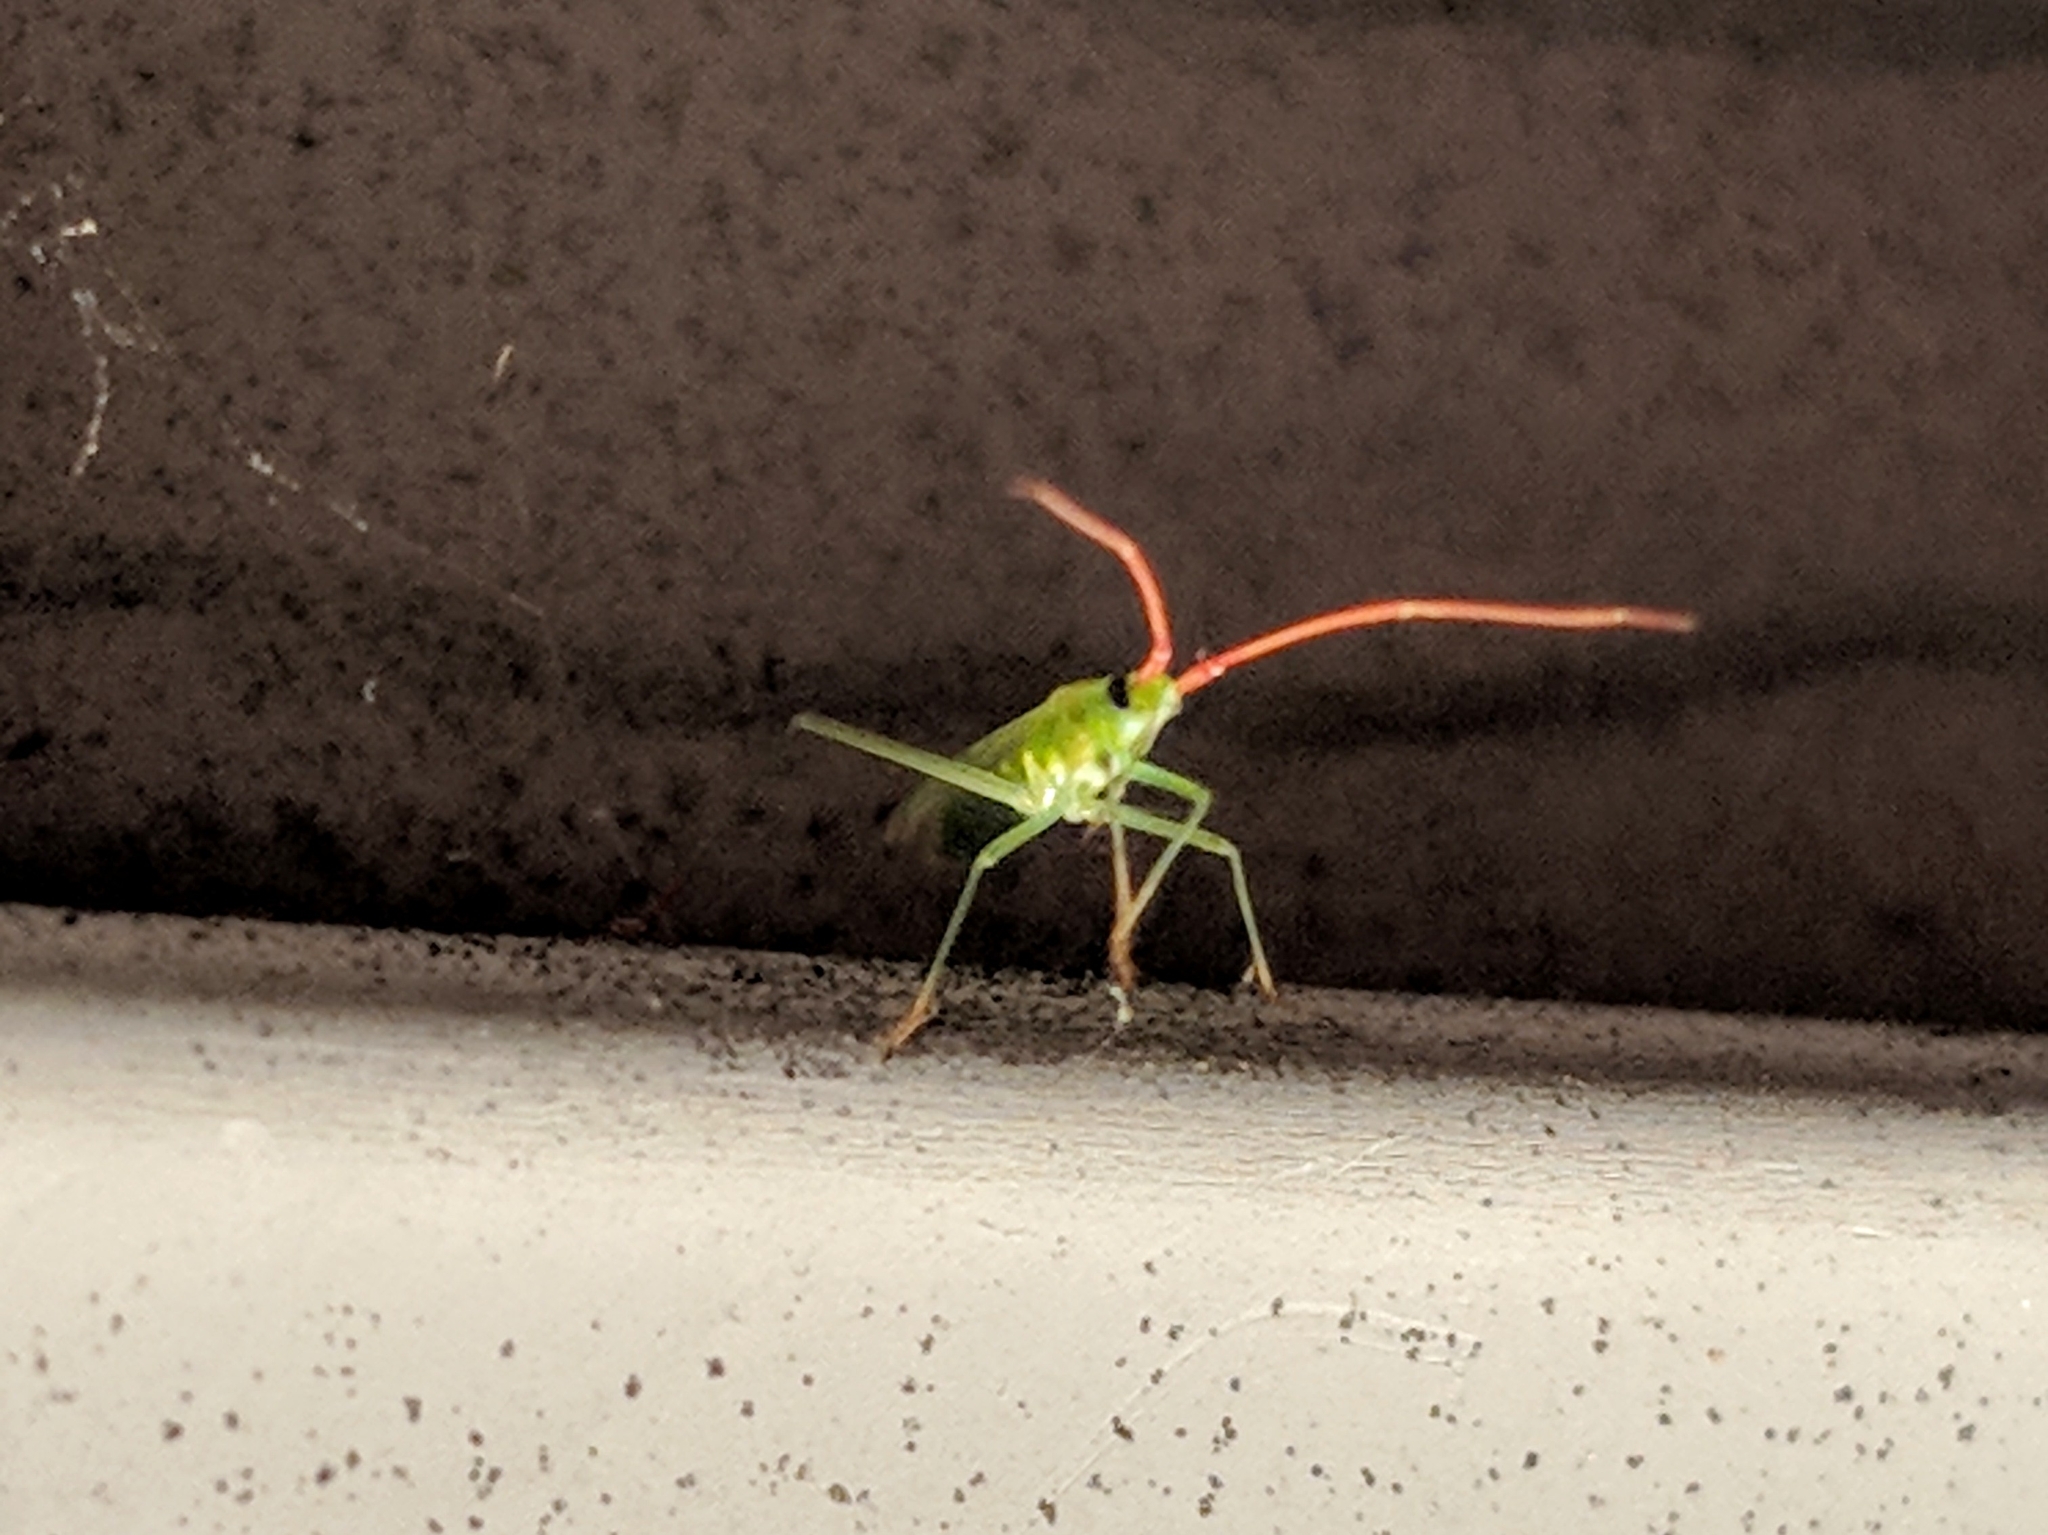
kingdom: Animalia
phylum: Arthropoda
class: Insecta
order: Hemiptera
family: Miridae
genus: Trigonotylus
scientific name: Trigonotylus caelestialium
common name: Rice leaf bug
